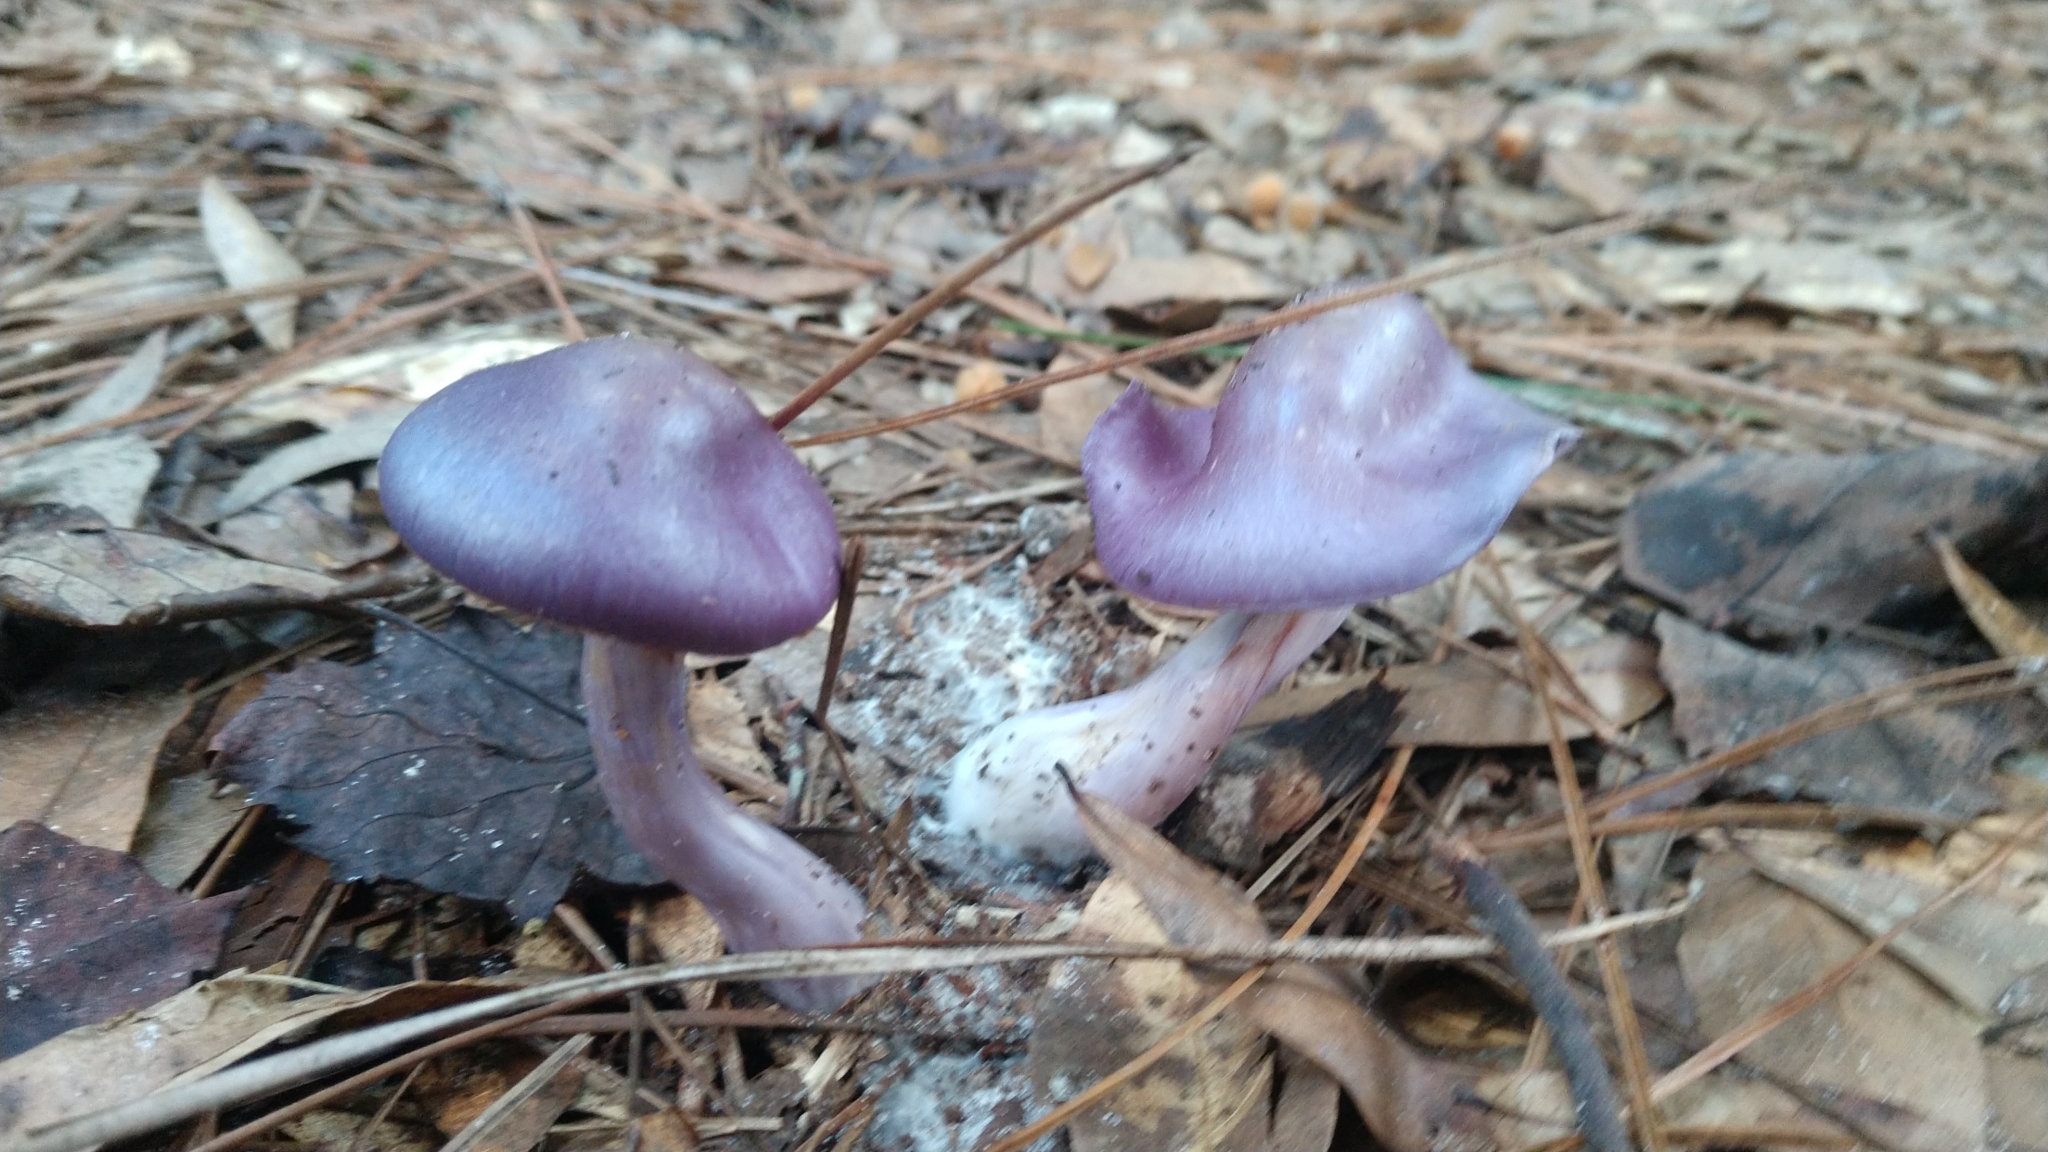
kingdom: Fungi
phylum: Basidiomycota
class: Agaricomycetes
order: Agaricales
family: Cortinariaceae
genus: Cortinarius
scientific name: Cortinarius iodes
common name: Viscid violet cort
